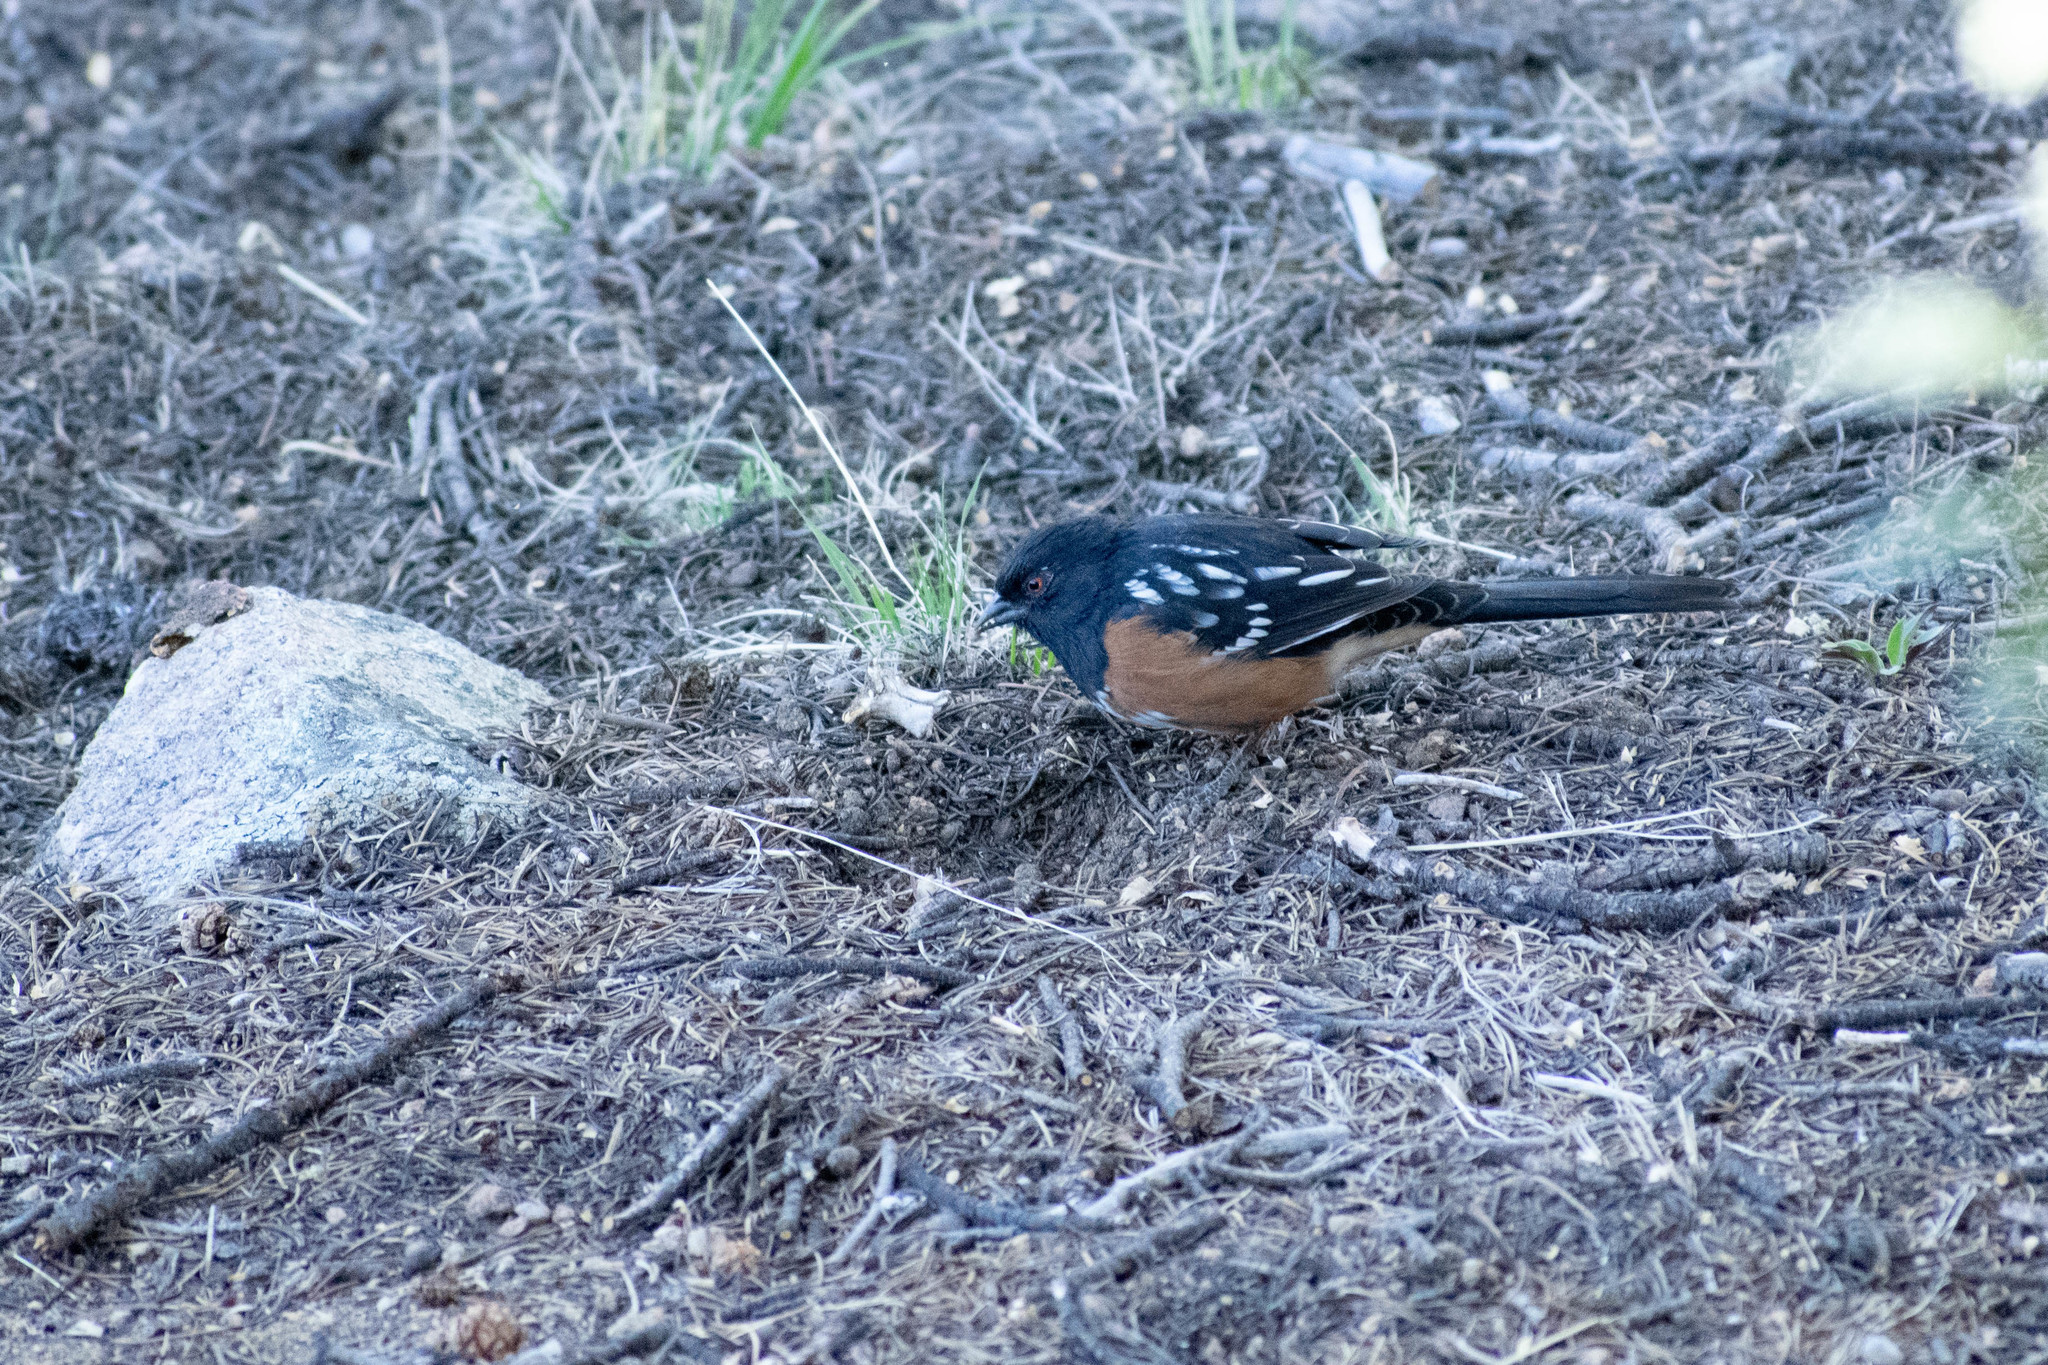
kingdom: Animalia
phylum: Chordata
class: Aves
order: Passeriformes
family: Passerellidae
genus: Pipilo
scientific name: Pipilo maculatus
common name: Spotted towhee
